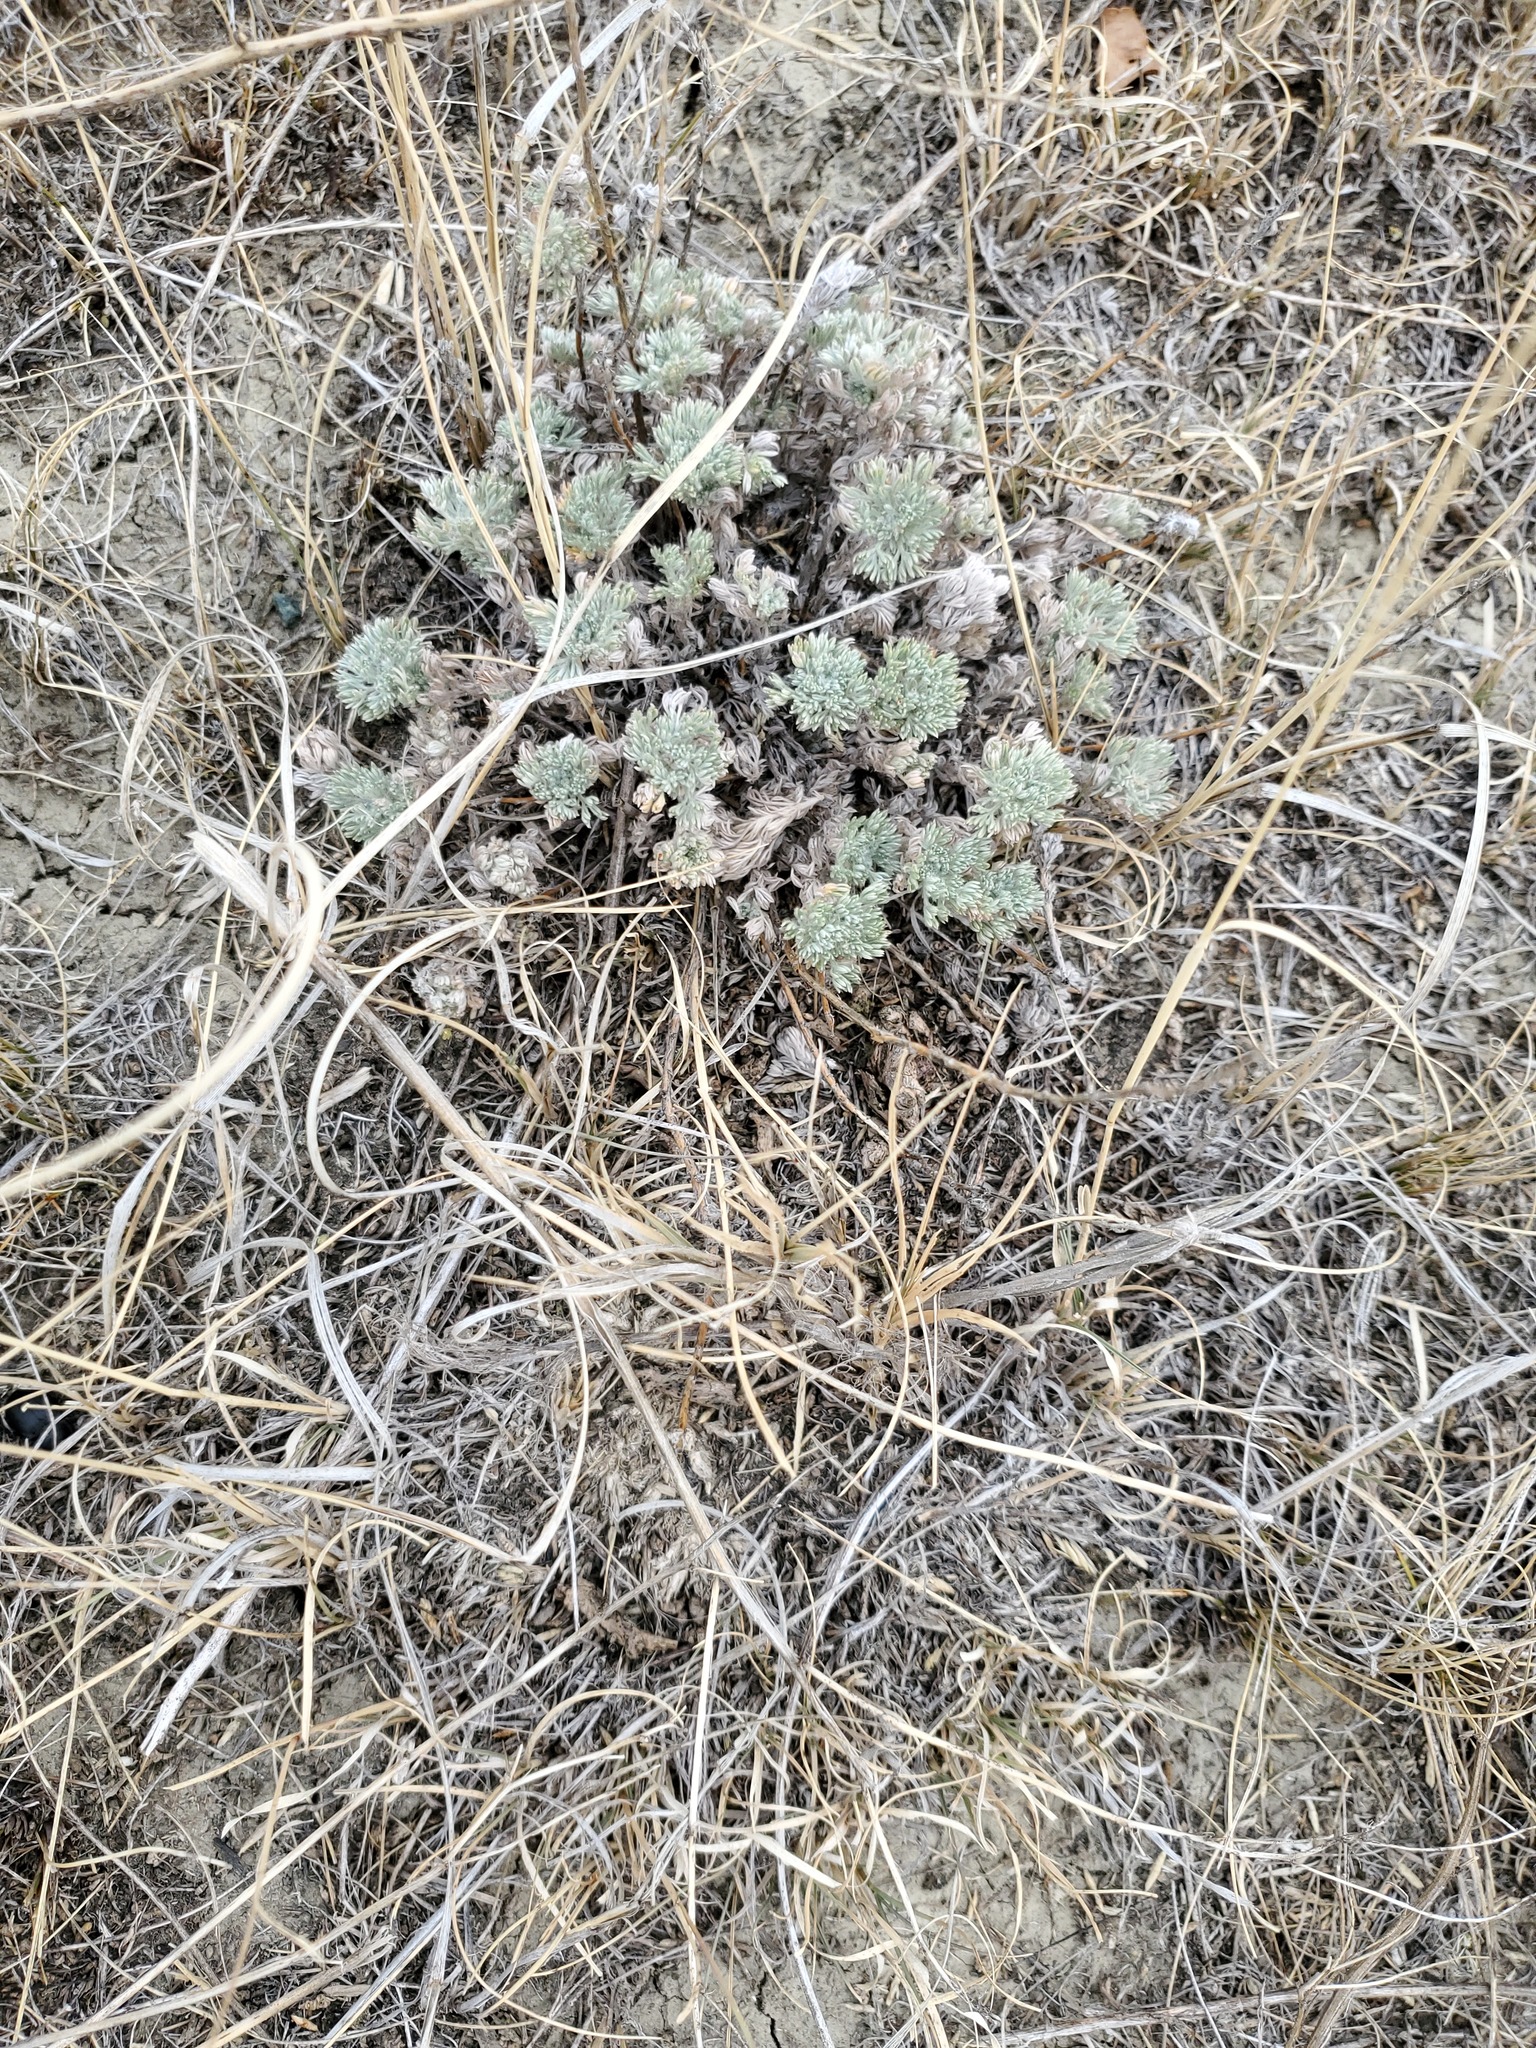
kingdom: Plantae
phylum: Tracheophyta
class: Magnoliopsida
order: Asterales
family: Asteraceae
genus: Artemisia
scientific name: Artemisia frigida
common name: Prairie sagewort
